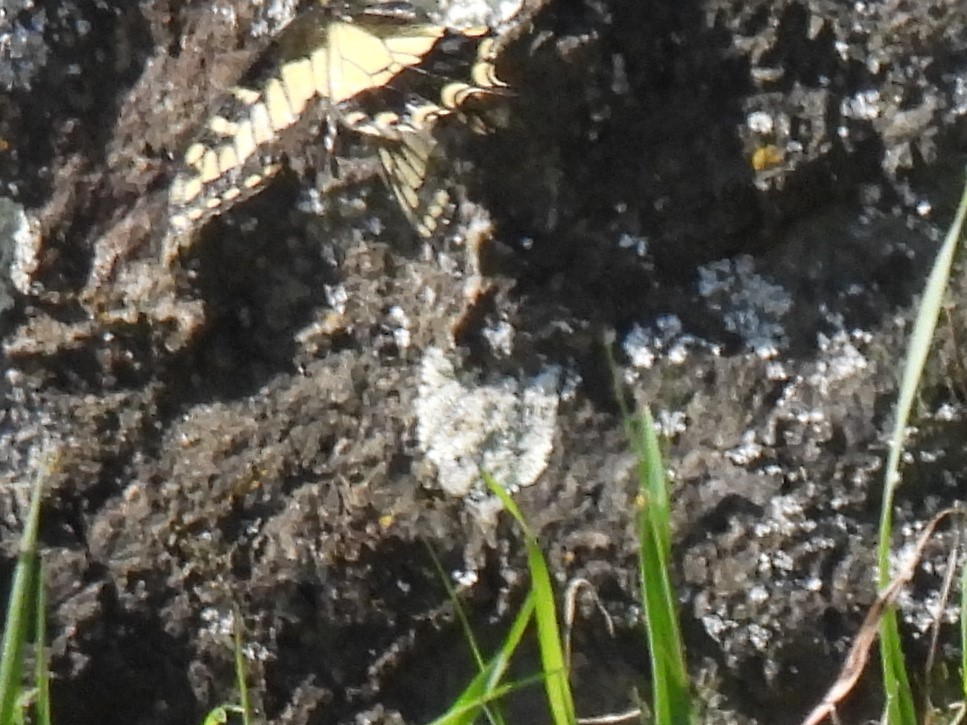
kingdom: Animalia
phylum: Arthropoda
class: Insecta
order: Lepidoptera
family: Papilionidae
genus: Papilio
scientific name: Papilio zelicaon
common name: Anise swallowtail
